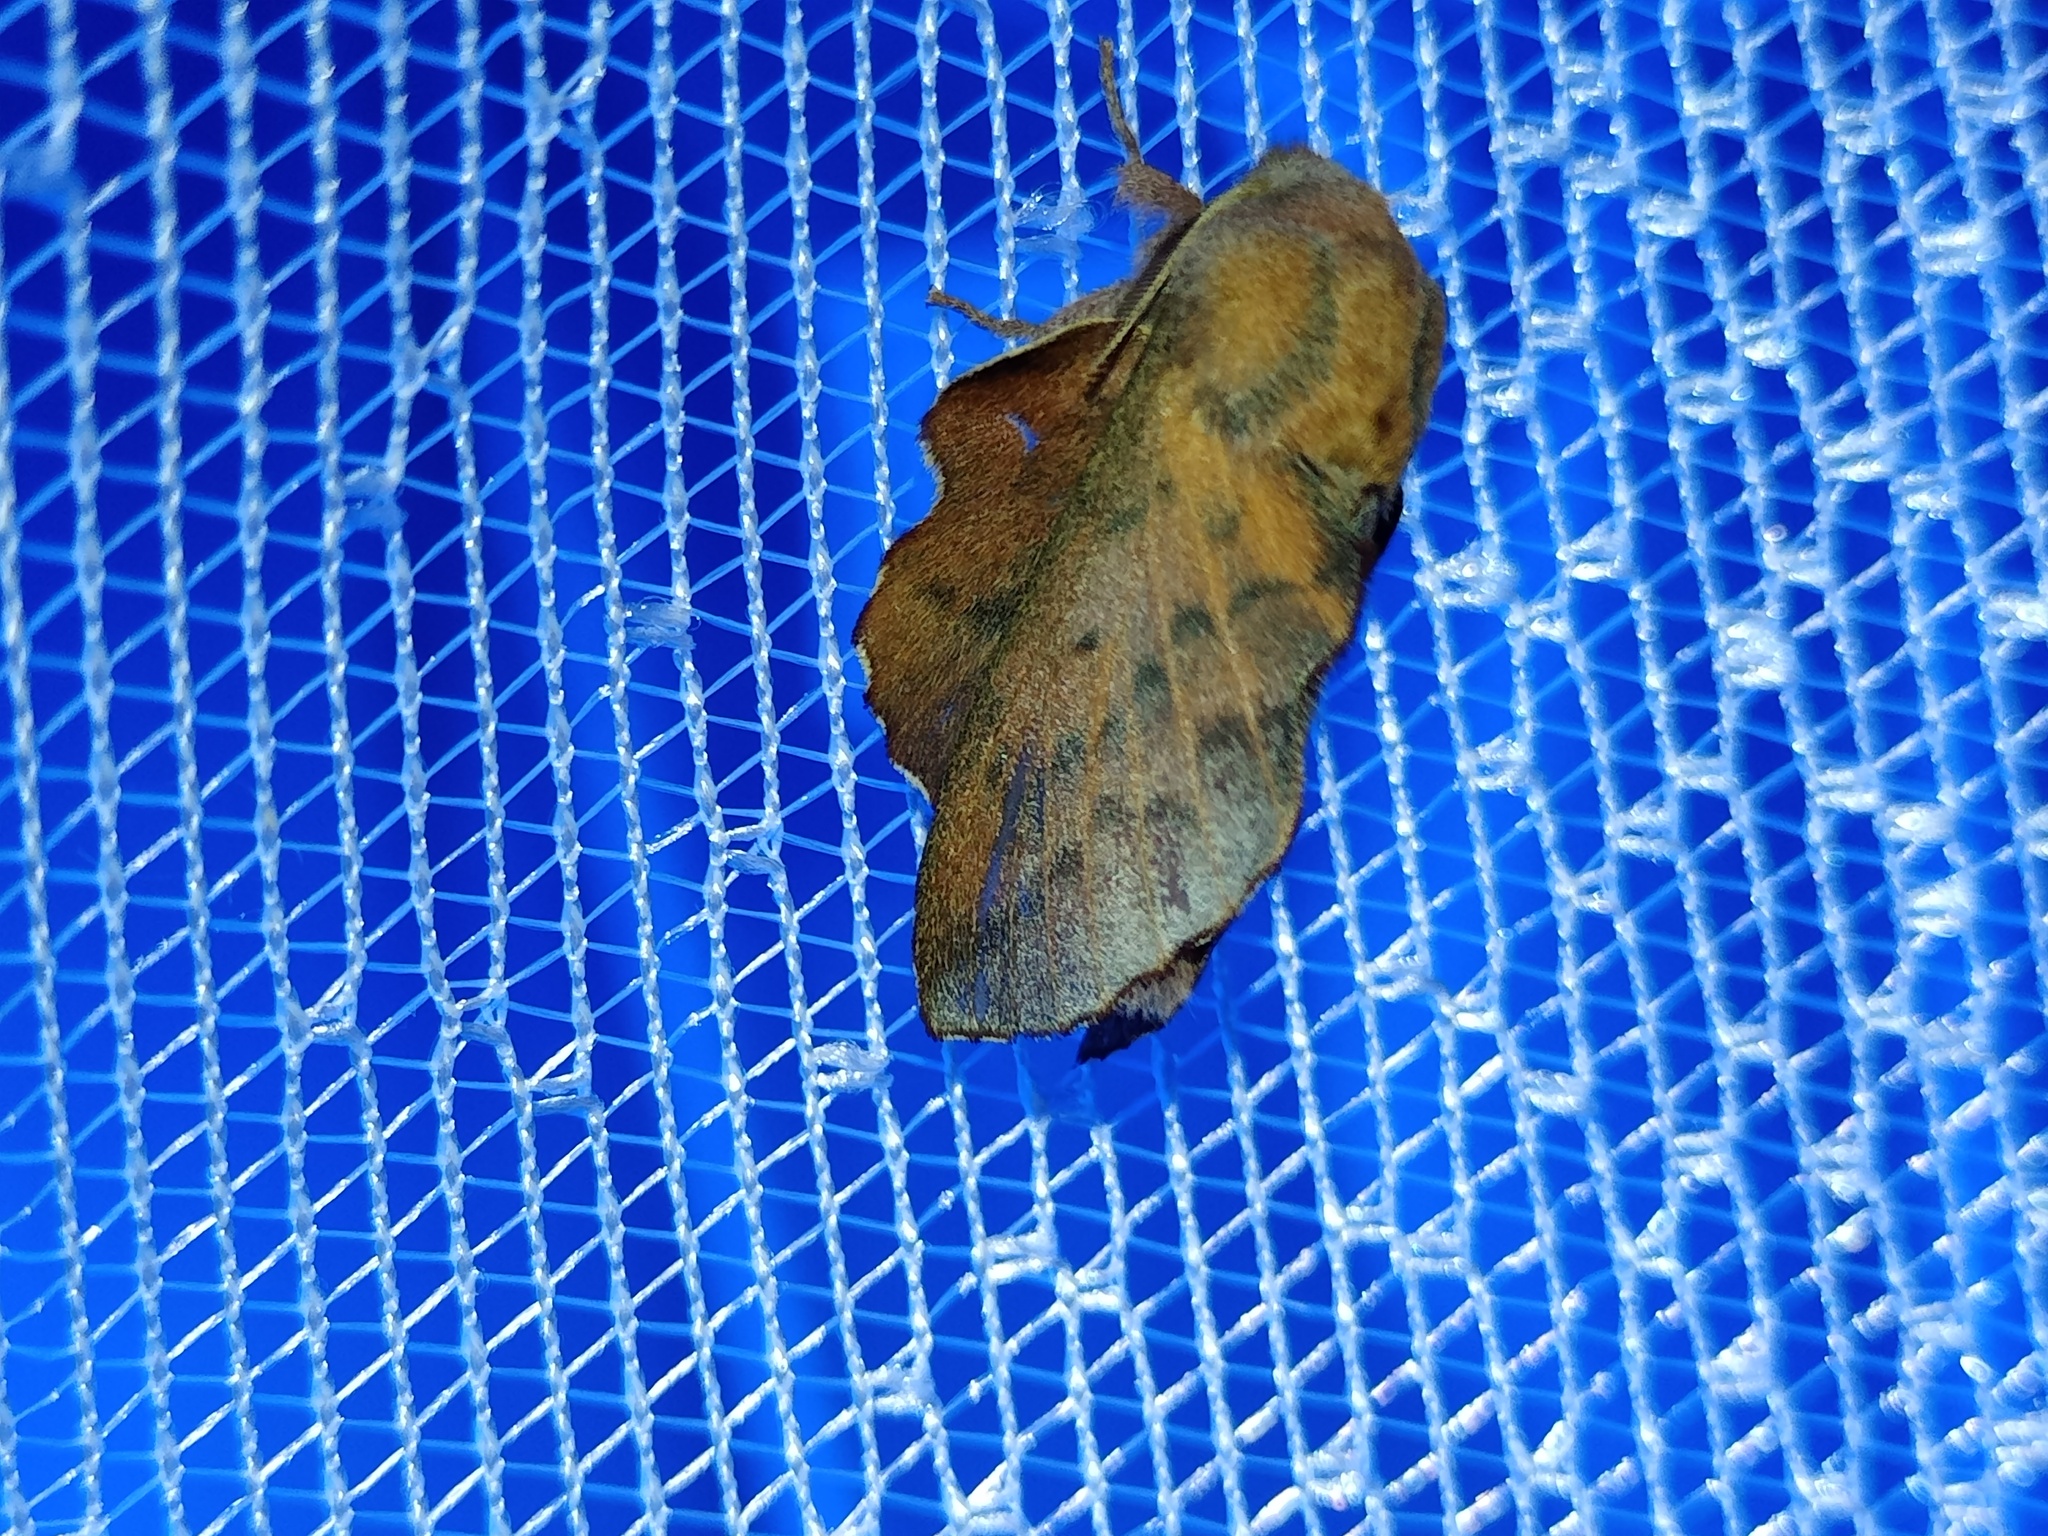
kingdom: Animalia
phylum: Arthropoda
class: Insecta
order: Lepidoptera
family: Lasiocampidae
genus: Phyllodesma
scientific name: Phyllodesma tremulifolia
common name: Aspen lappet
